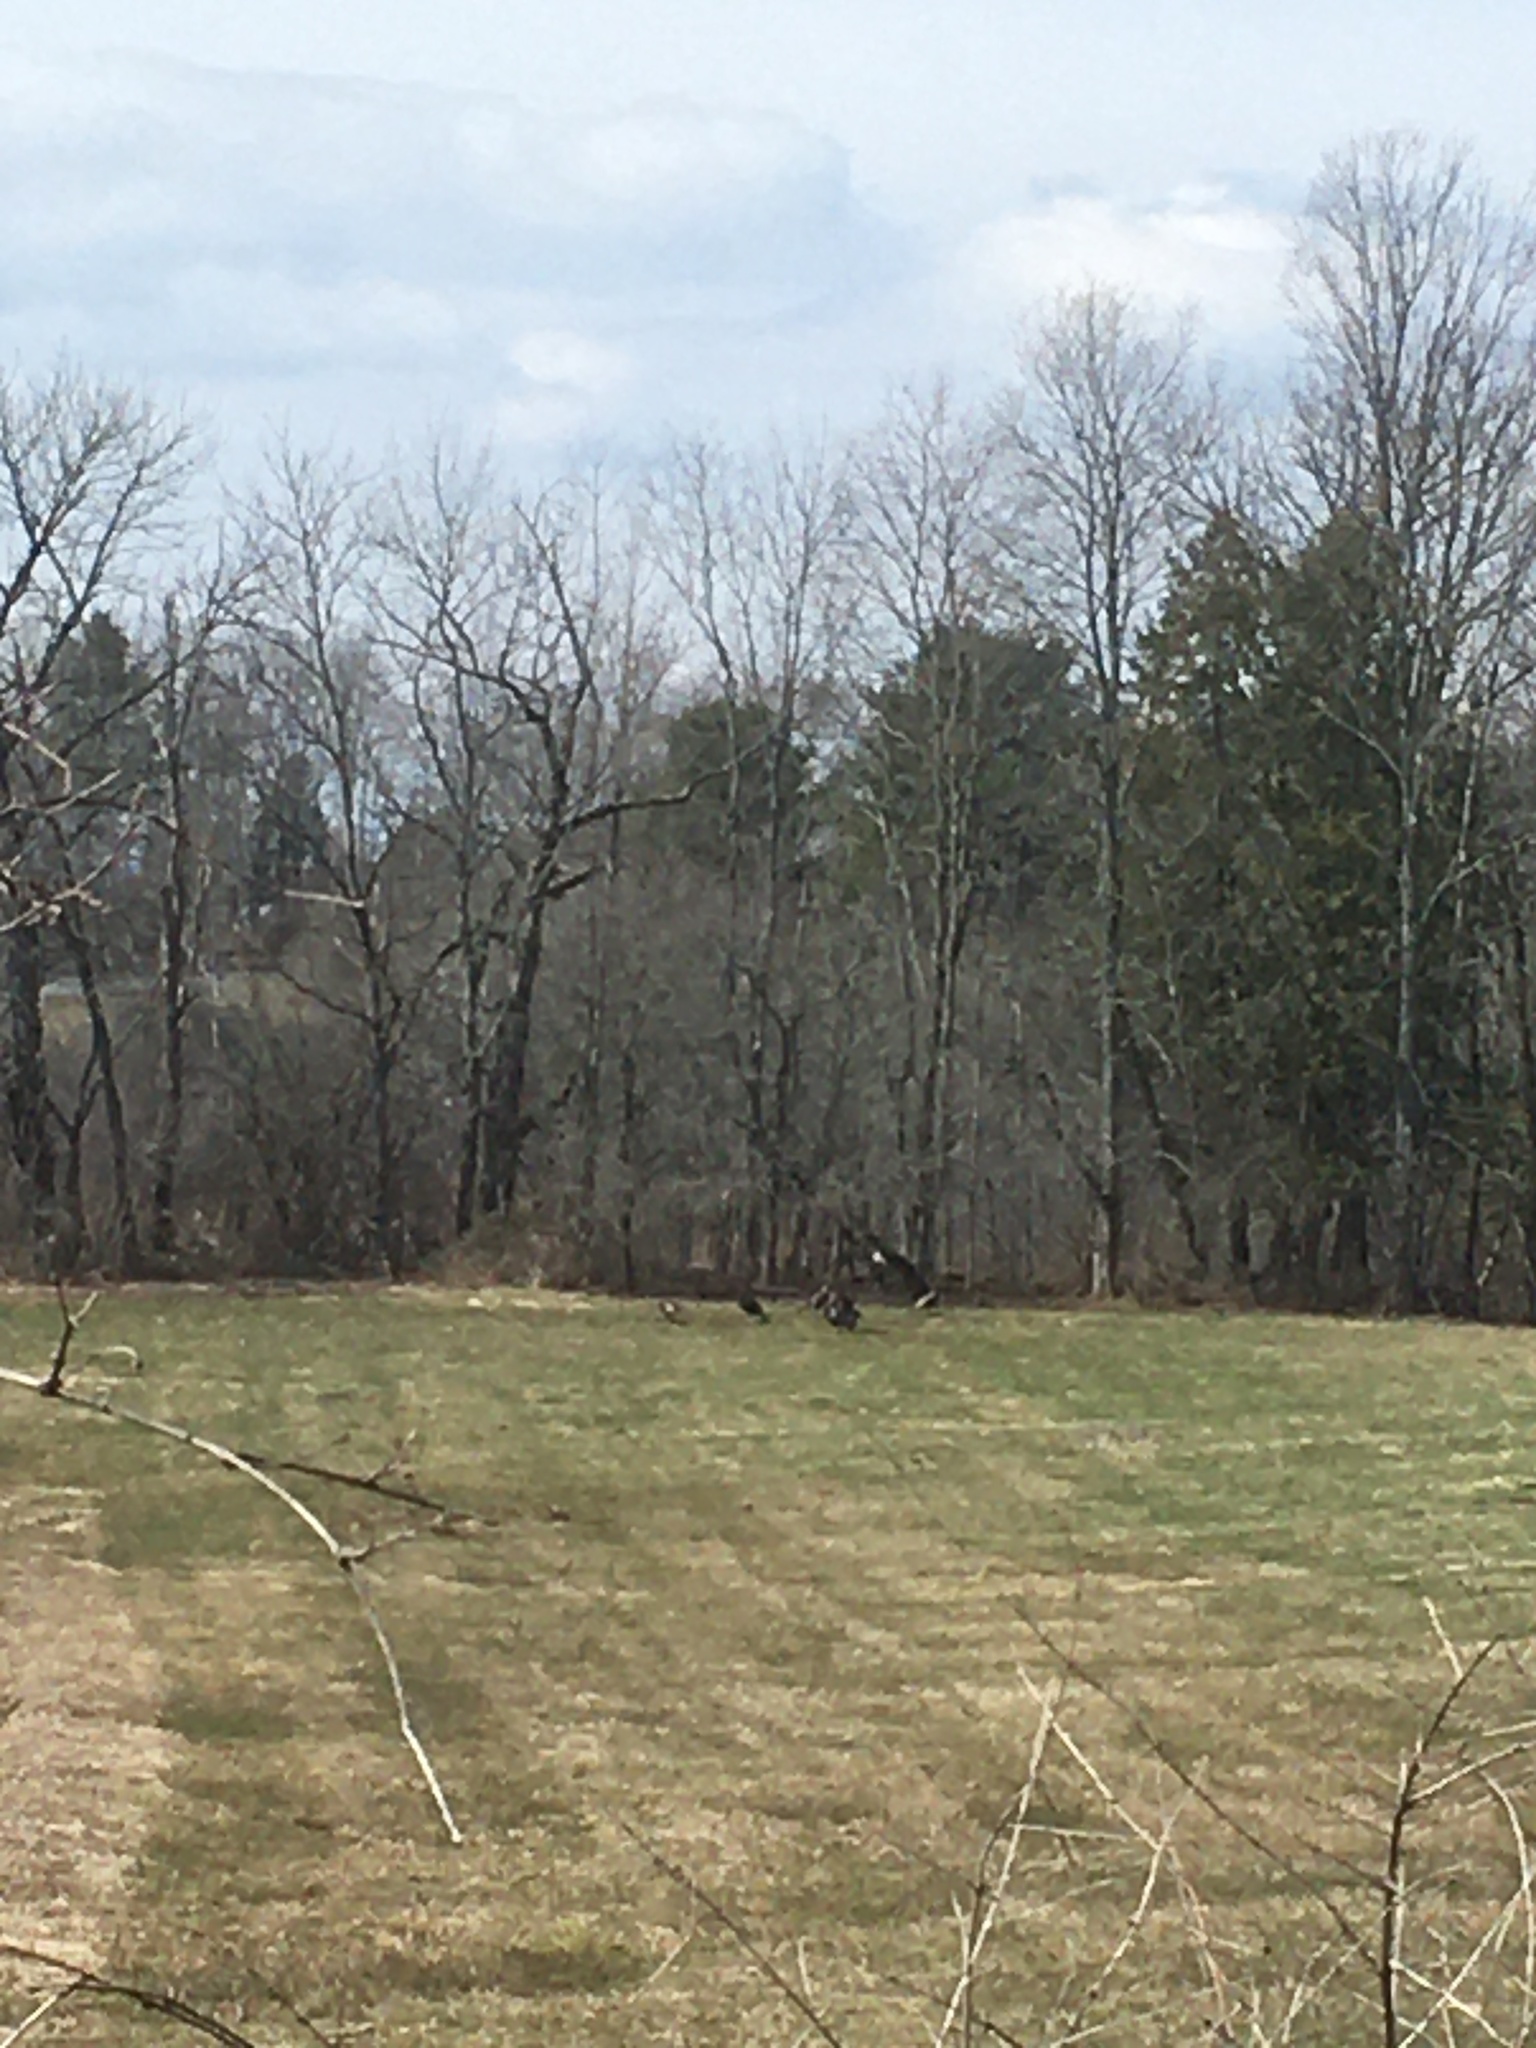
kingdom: Animalia
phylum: Chordata
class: Aves
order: Galliformes
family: Phasianidae
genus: Meleagris
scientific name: Meleagris gallopavo
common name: Wild turkey
